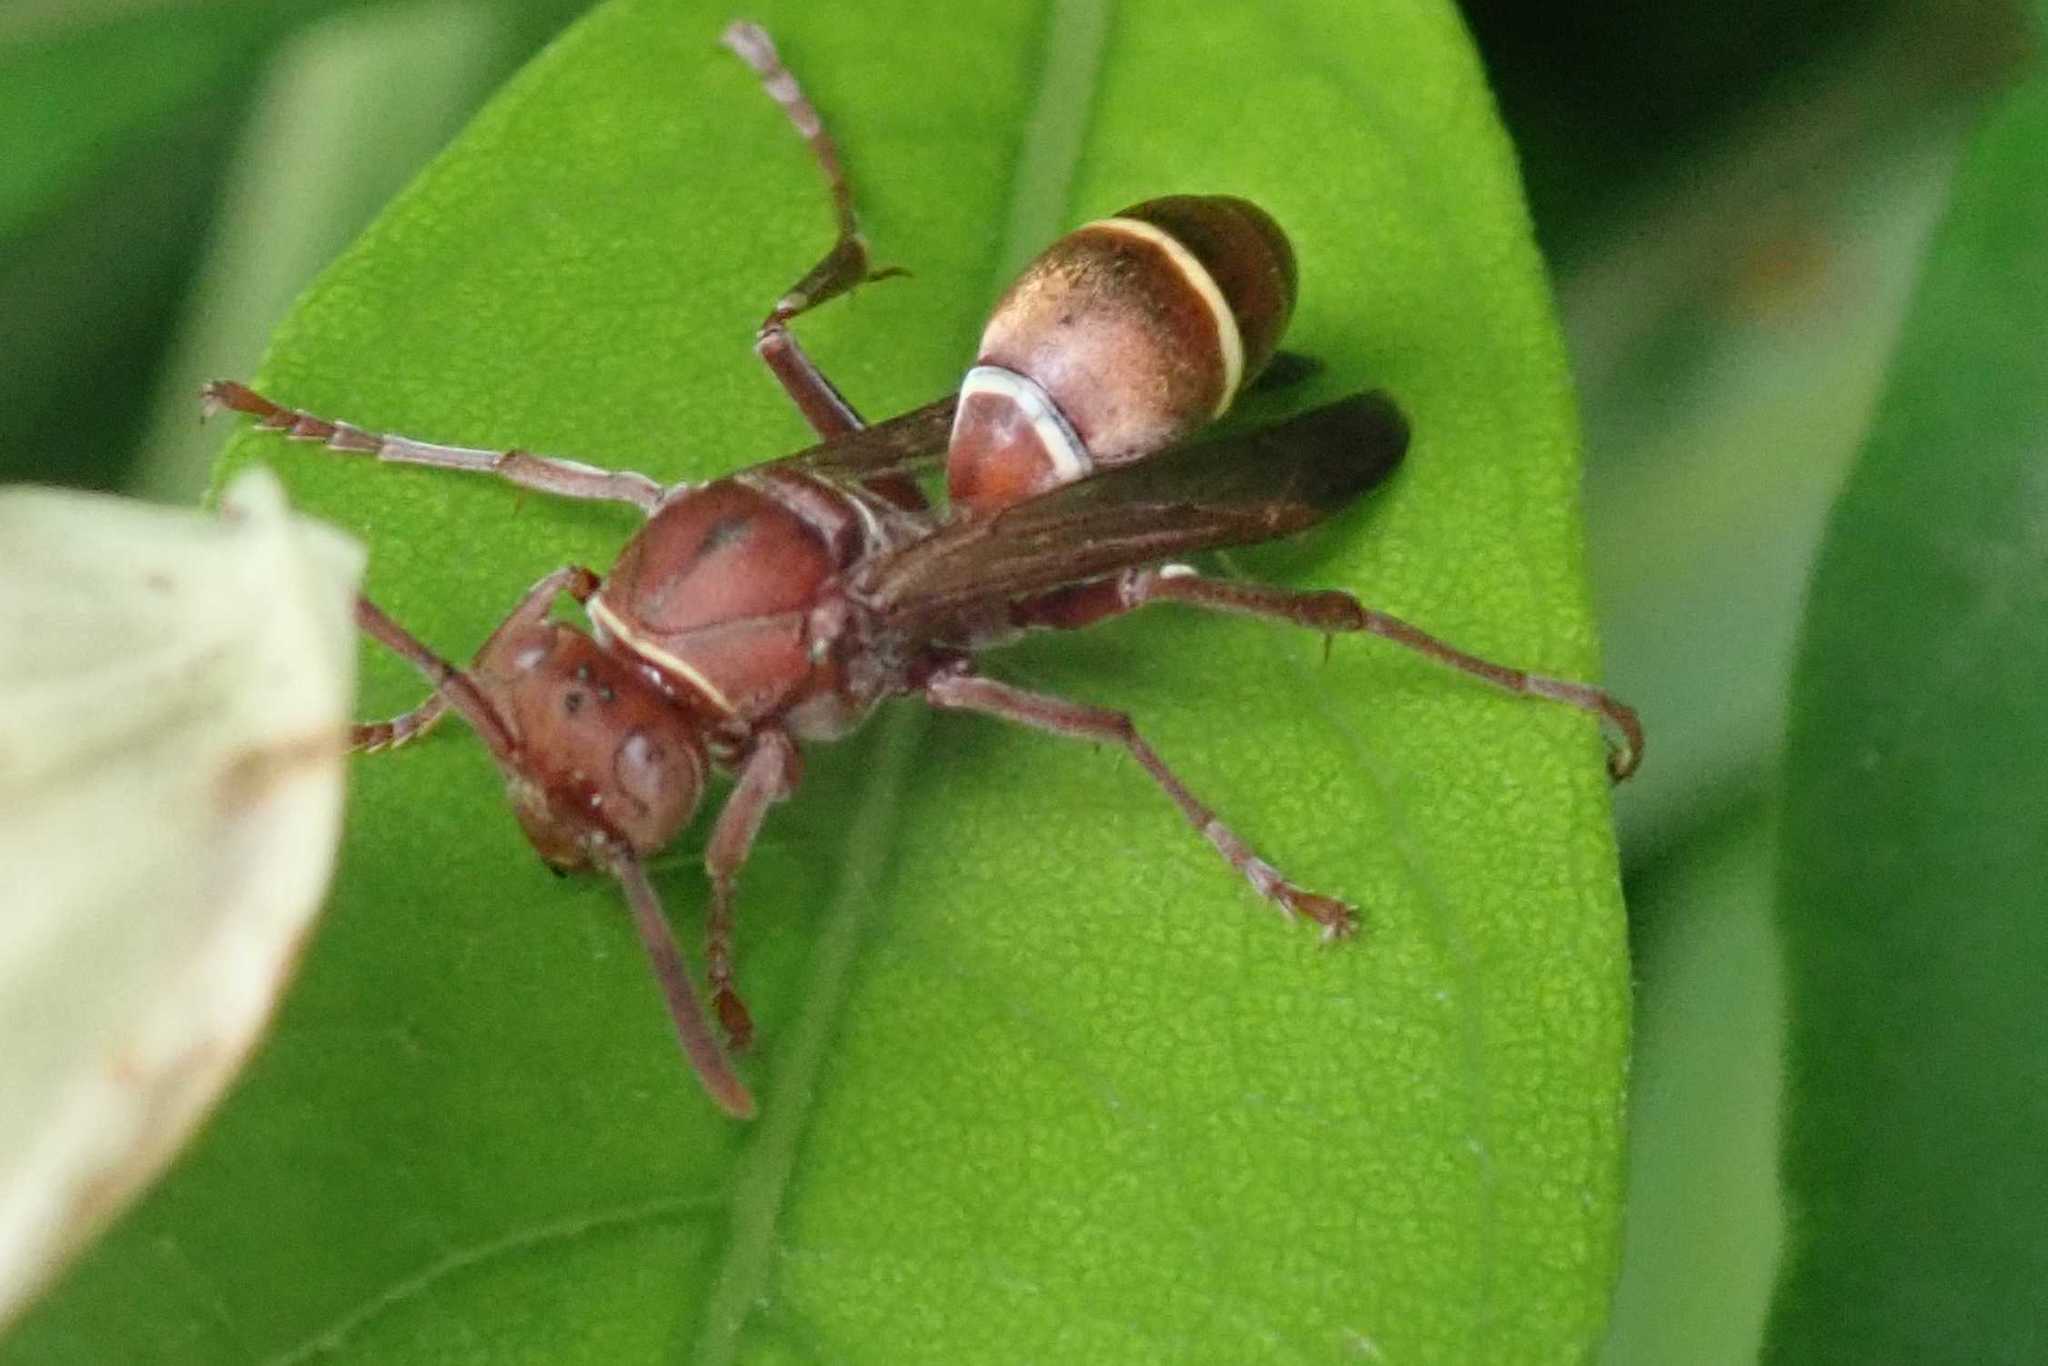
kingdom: Animalia
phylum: Arthropoda
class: Insecta
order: Hymenoptera
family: Eumenidae
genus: Polistes
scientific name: Polistes africanus
